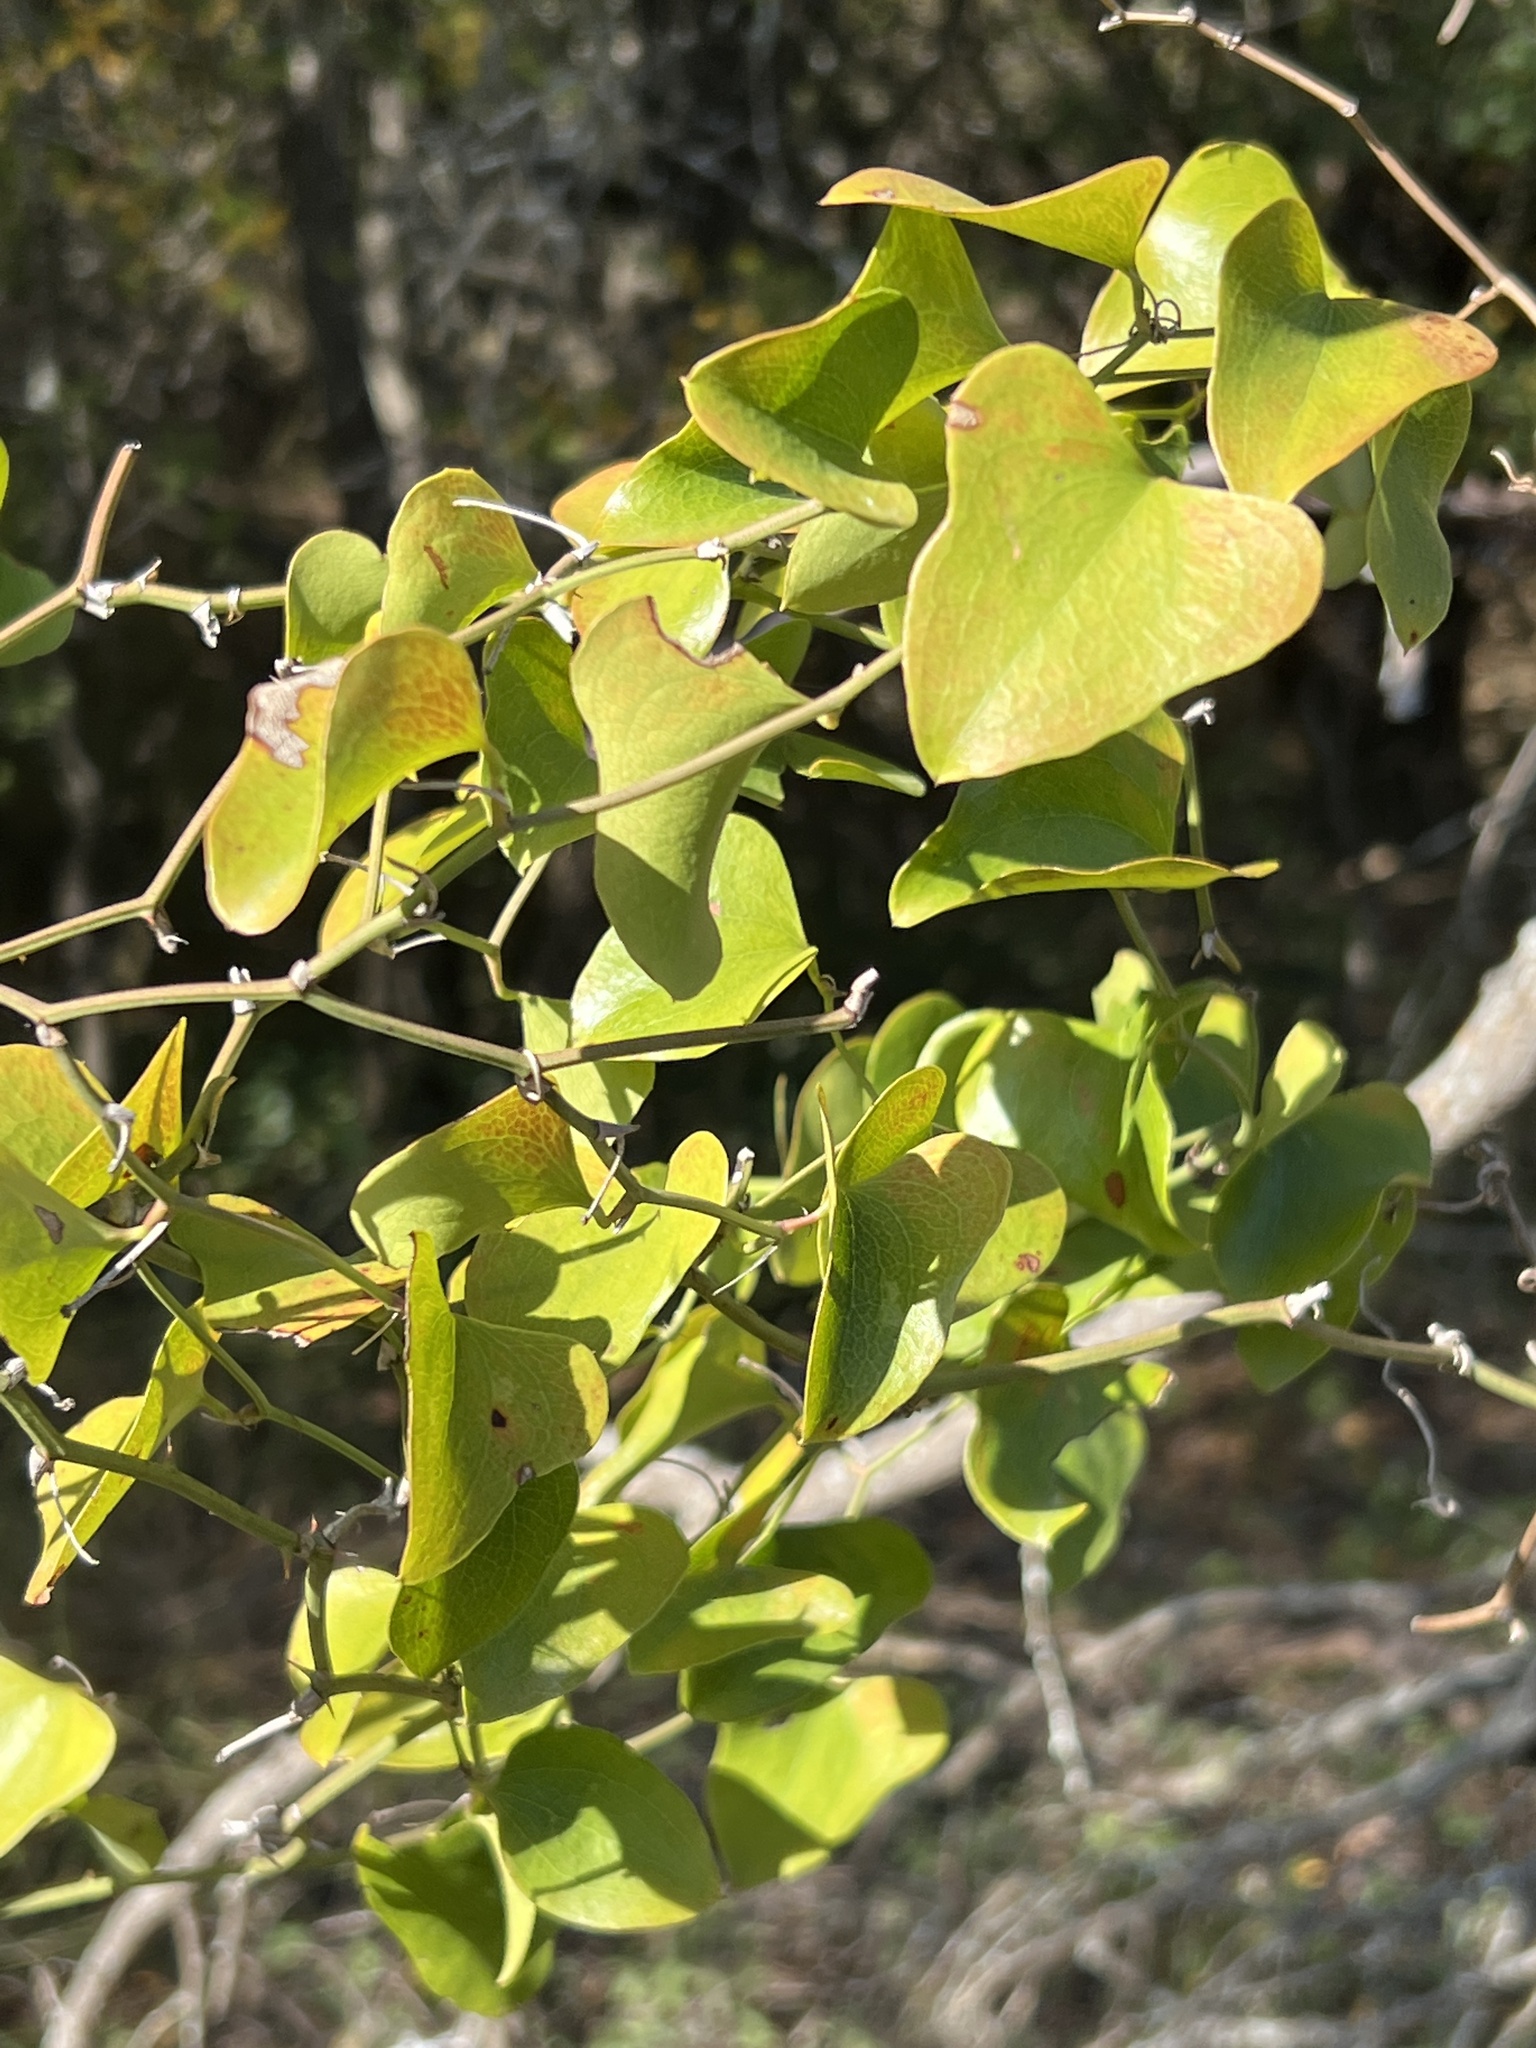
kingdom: Plantae
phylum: Tracheophyta
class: Liliopsida
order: Liliales
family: Smilacaceae
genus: Smilax
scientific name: Smilax bona-nox
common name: Catbrier
